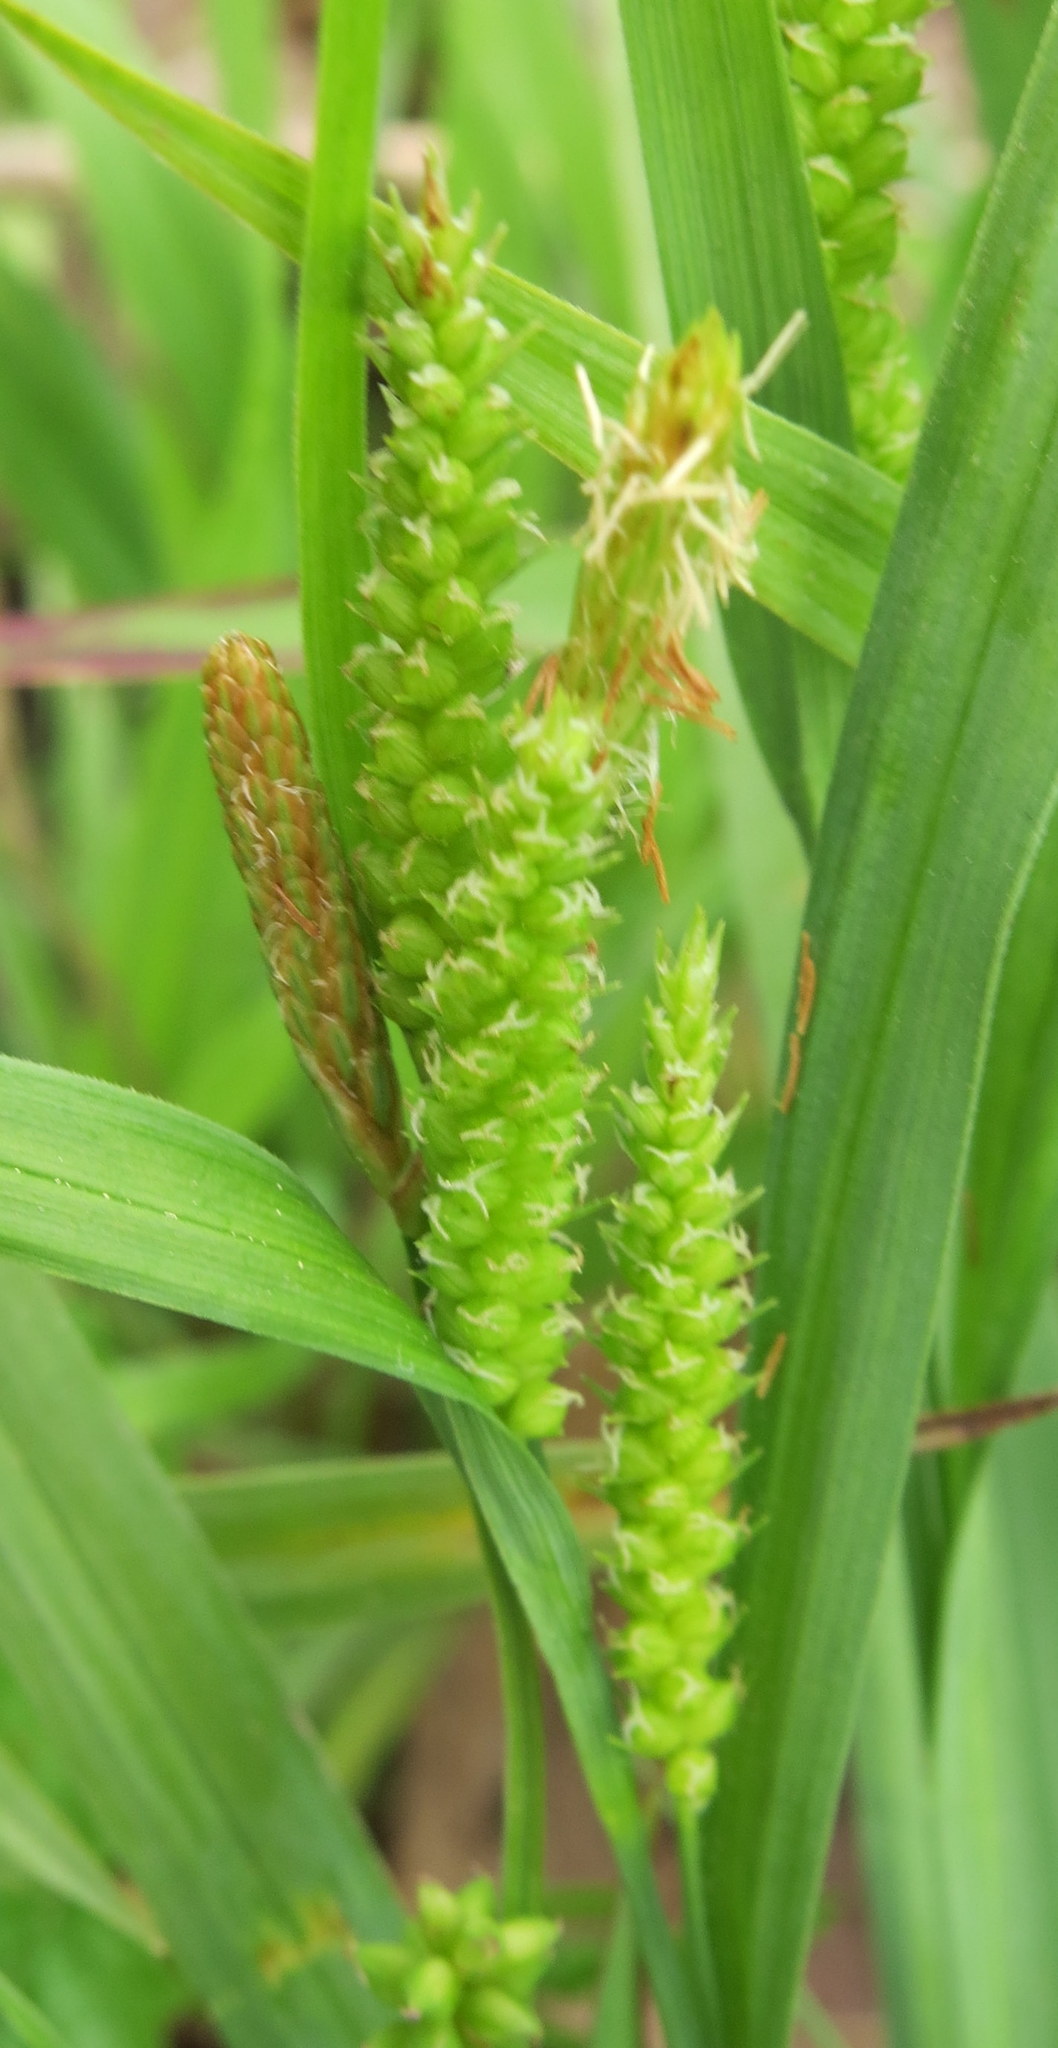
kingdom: Plantae
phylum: Tracheophyta
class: Liliopsida
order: Poales
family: Cyperaceae
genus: Carex
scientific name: Carex granularis
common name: Granular sedge
